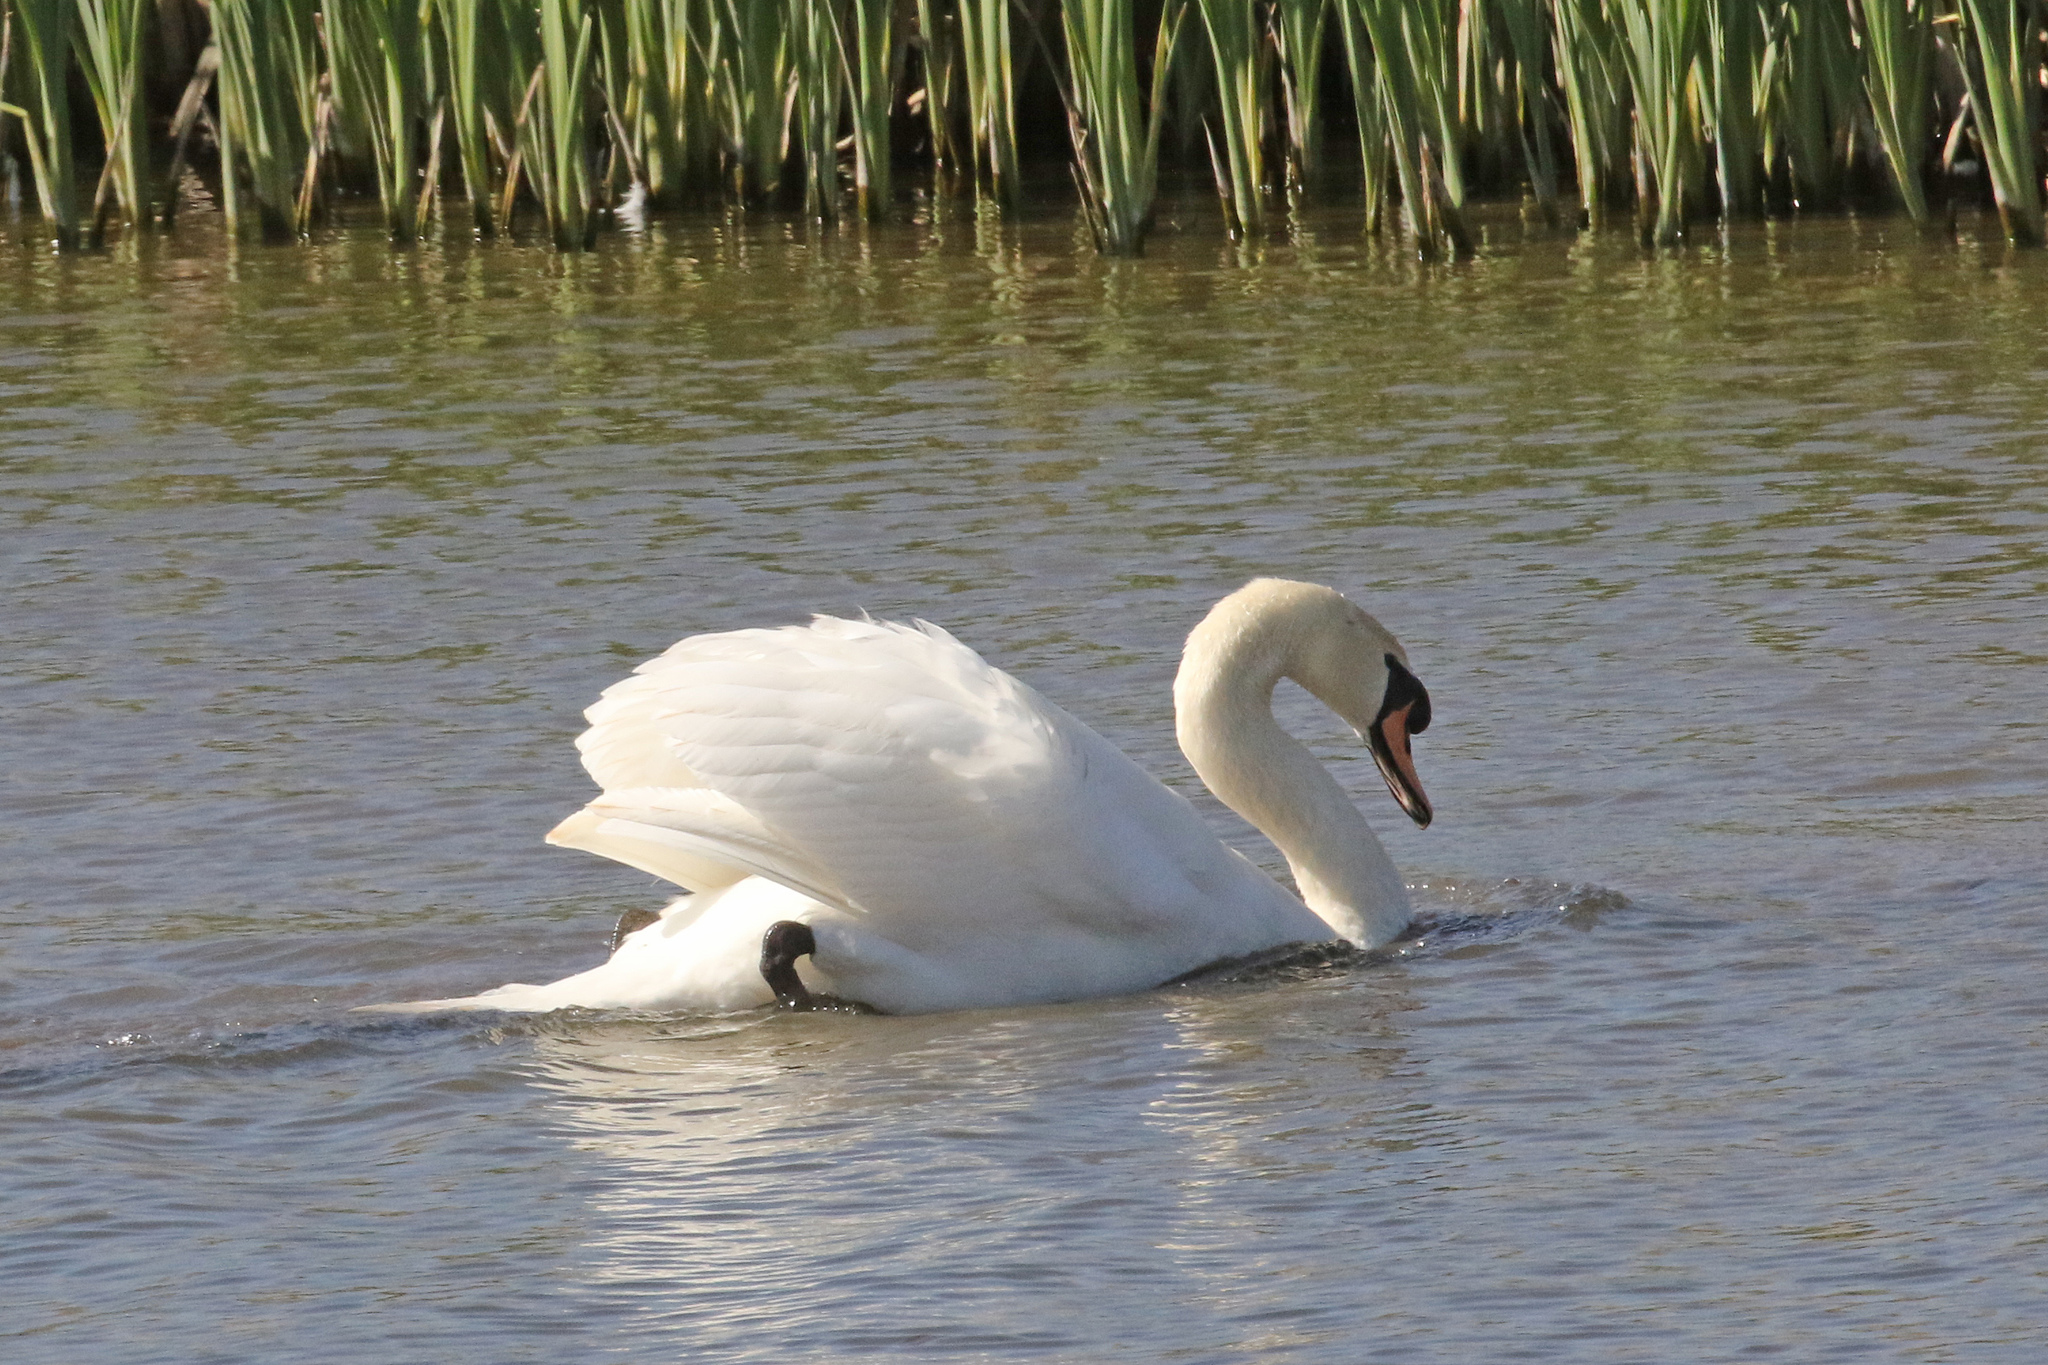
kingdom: Animalia
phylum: Chordata
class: Aves
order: Anseriformes
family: Anatidae
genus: Cygnus
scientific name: Cygnus olor
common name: Mute swan
